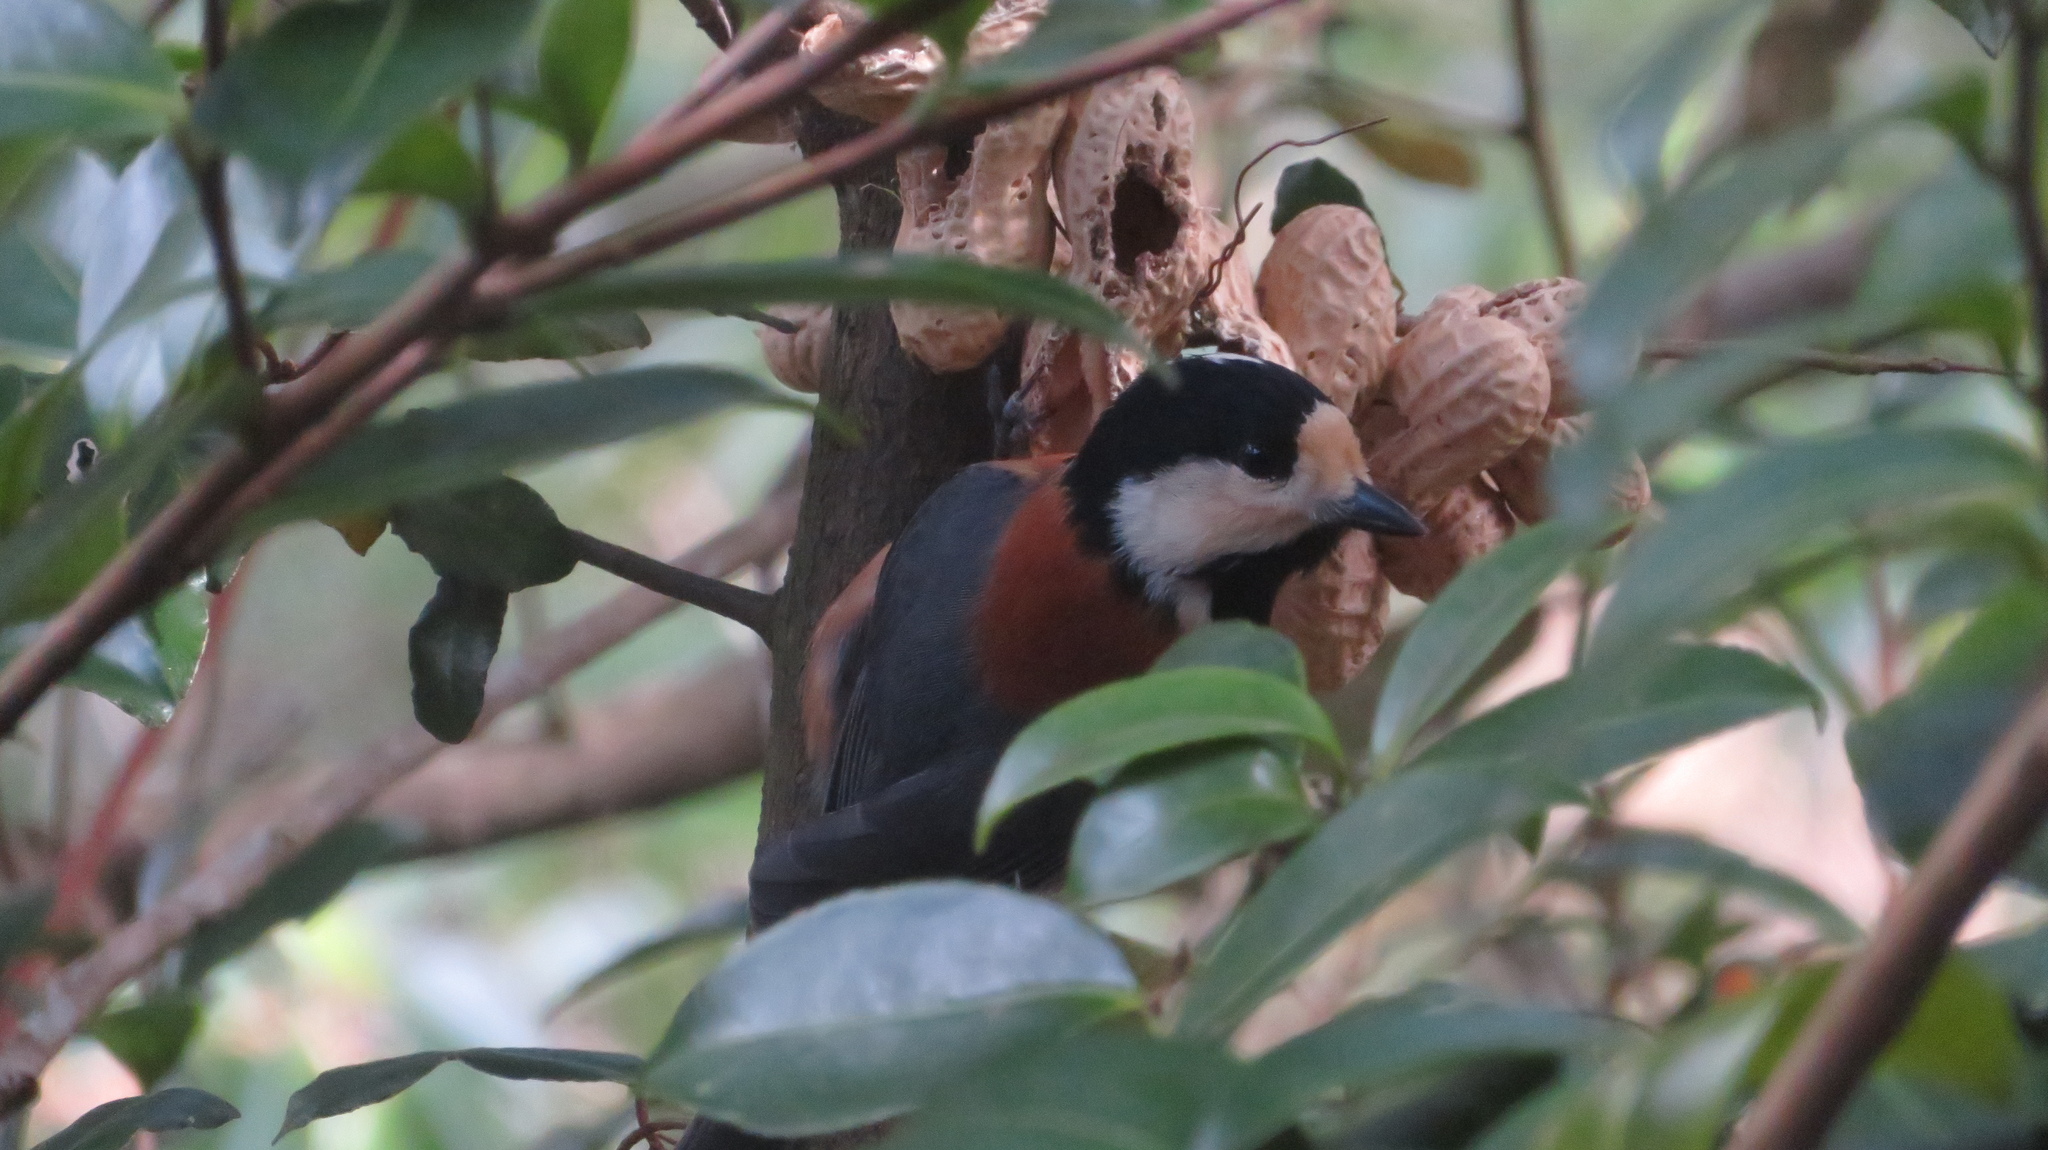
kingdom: Animalia
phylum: Chordata
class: Aves
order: Passeriformes
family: Paridae
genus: Poecile
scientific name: Poecile varius
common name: Varied tit
